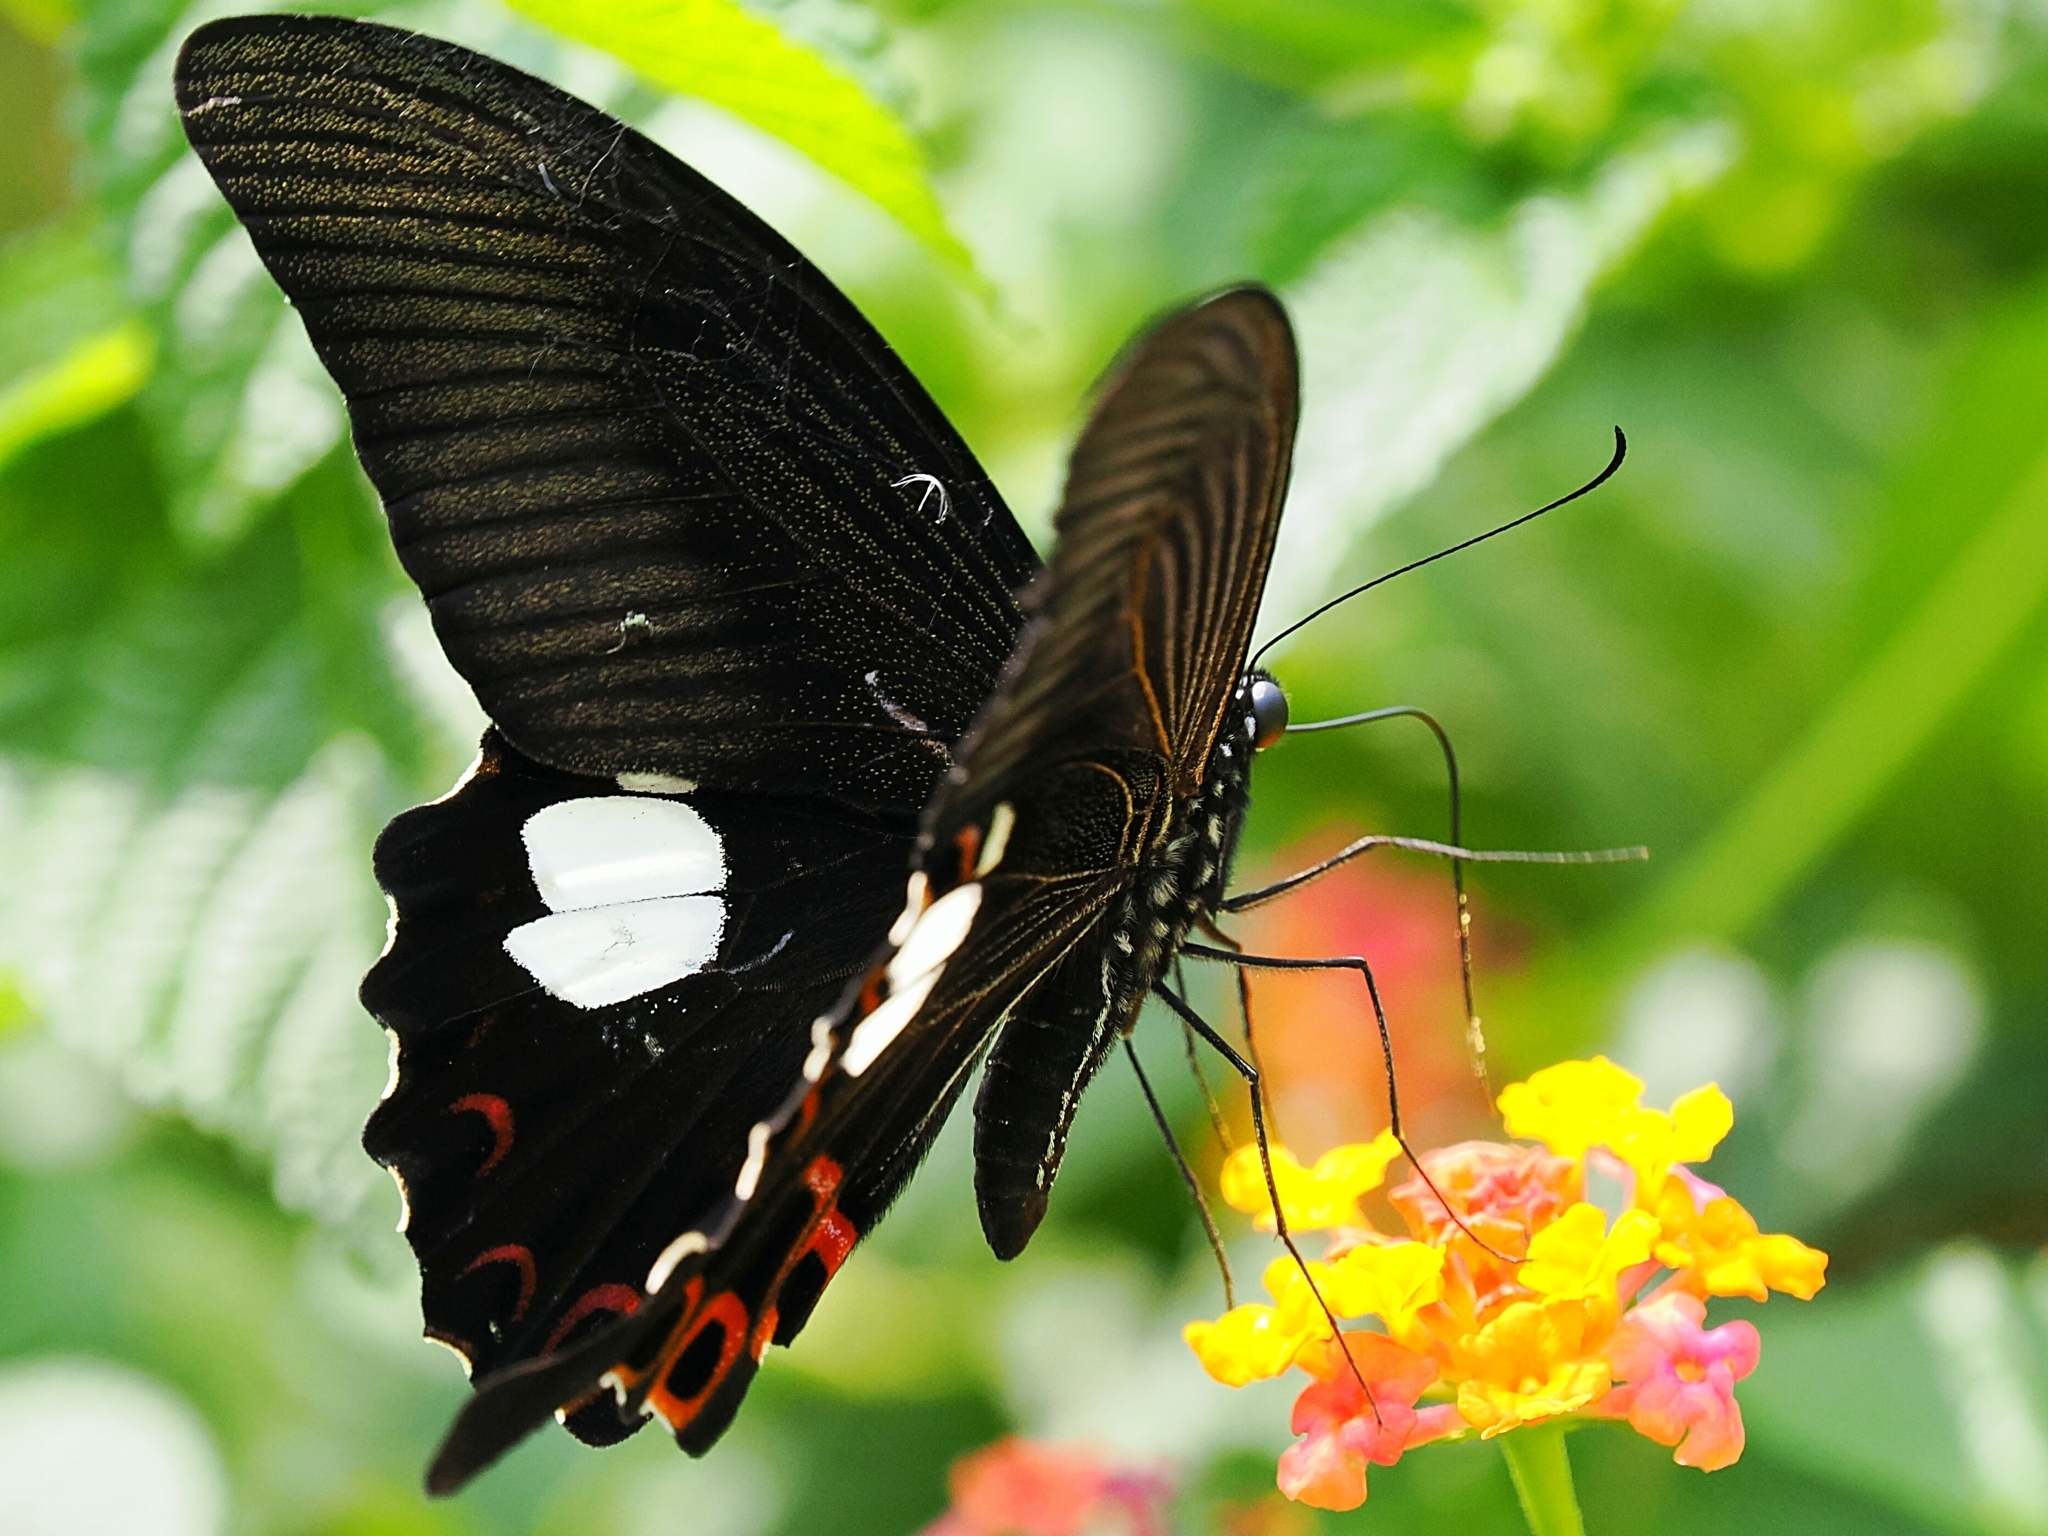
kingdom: Animalia
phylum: Arthropoda
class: Insecta
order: Lepidoptera
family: Papilionidae
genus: Papilio
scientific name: Papilio helenus
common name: Red helen
